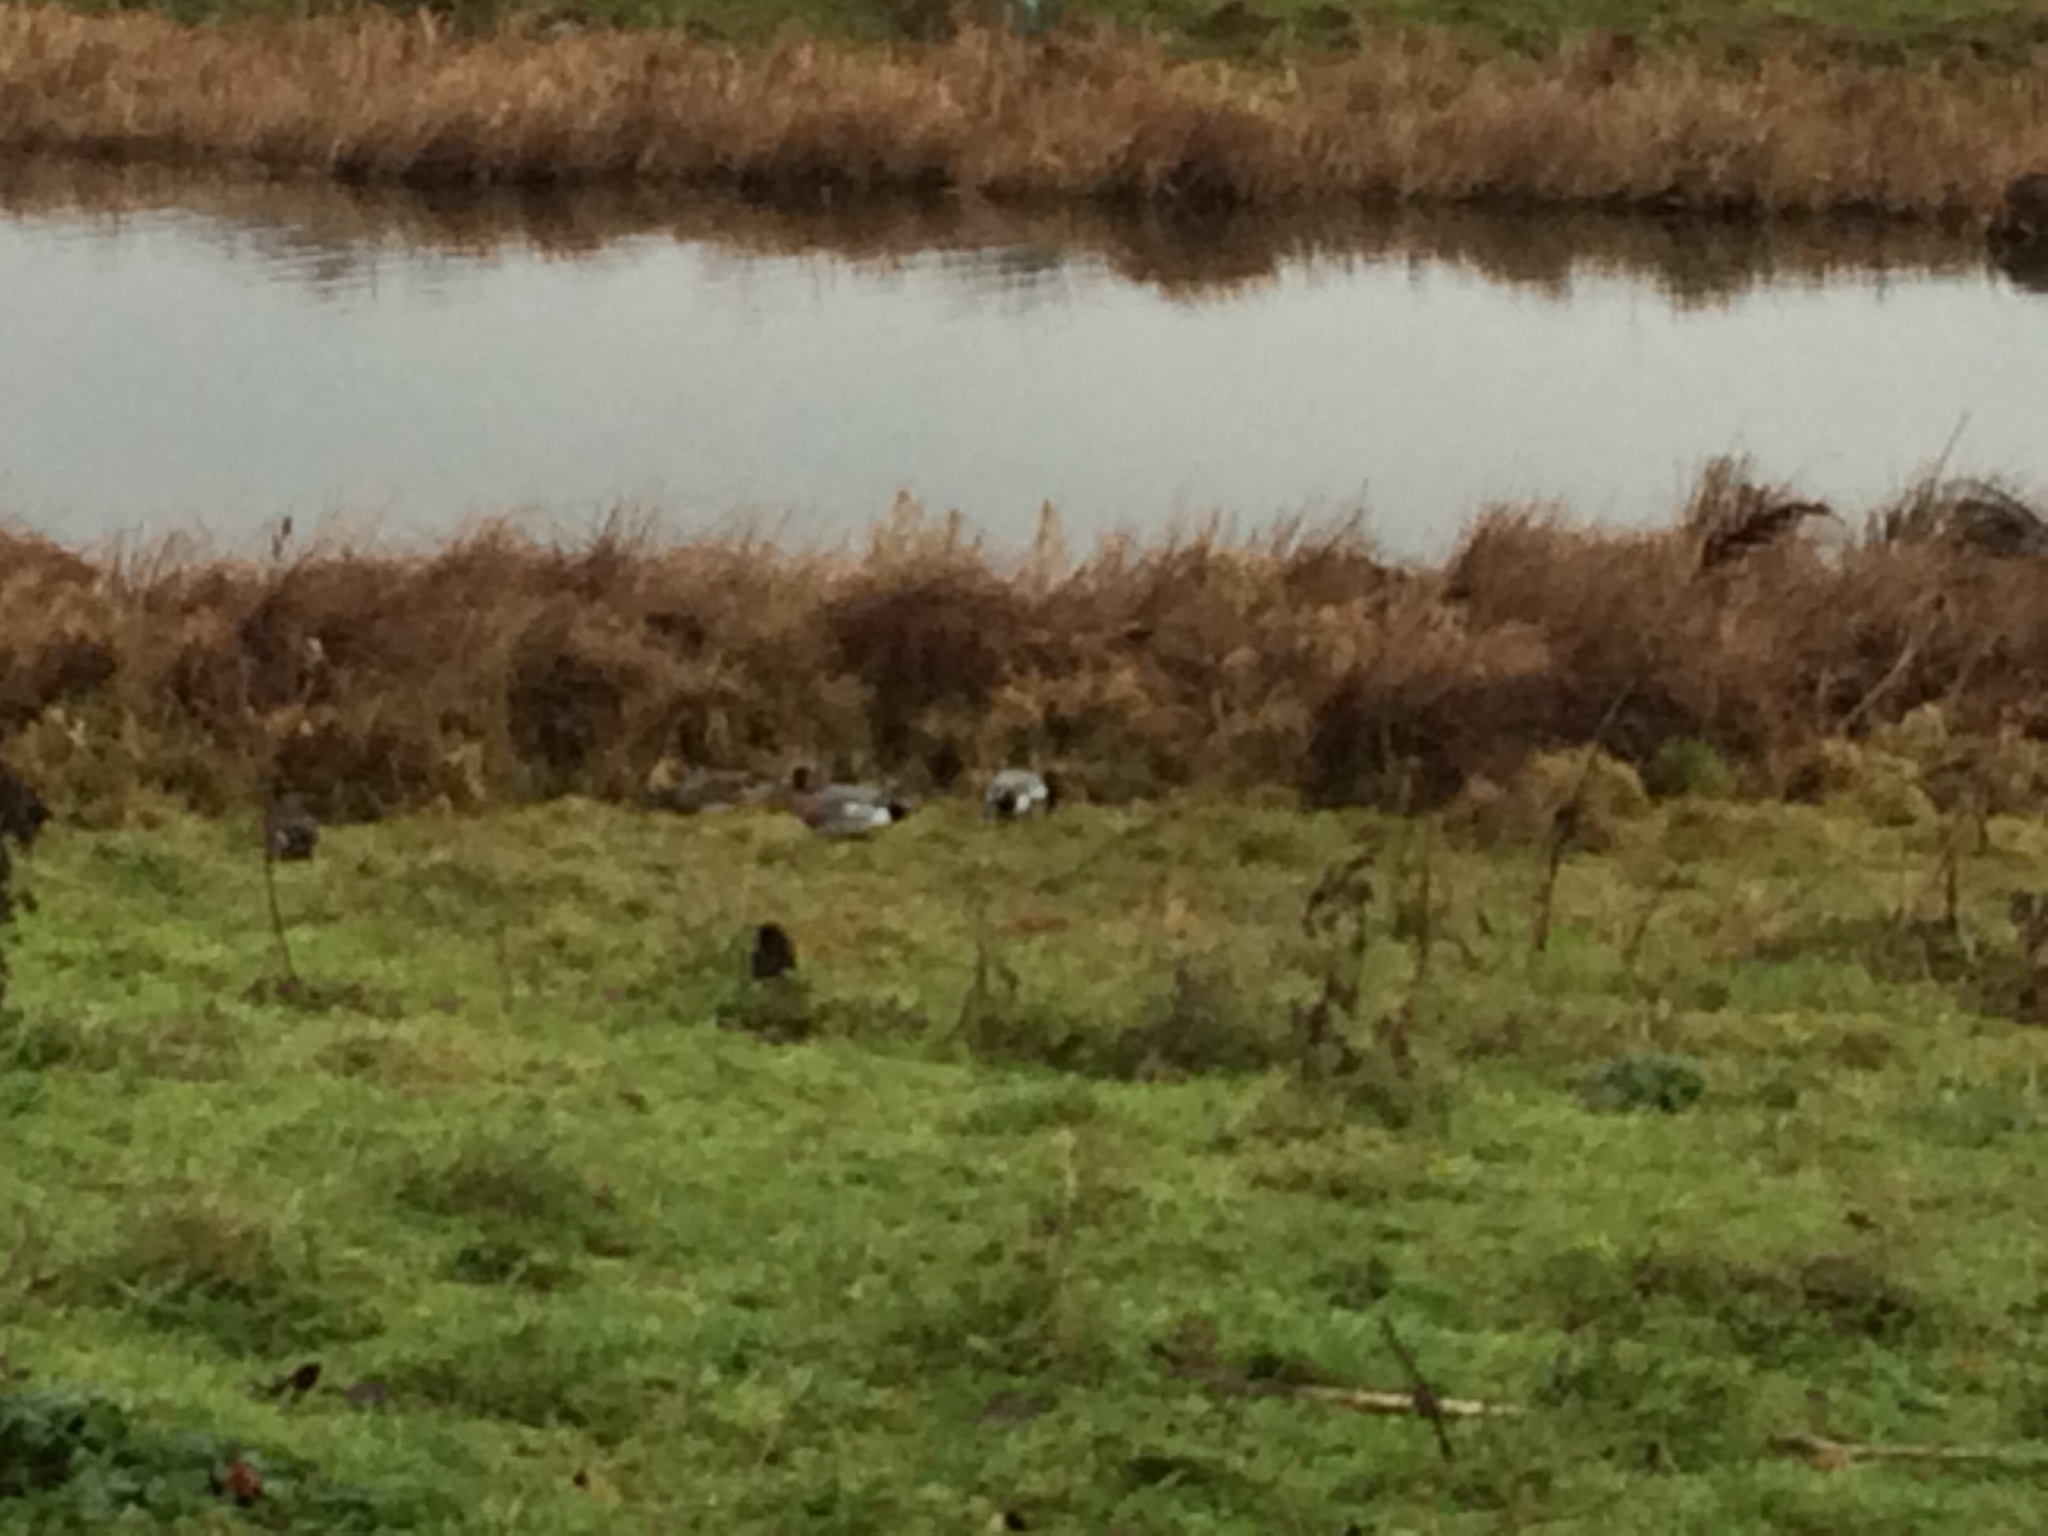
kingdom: Animalia
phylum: Chordata
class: Aves
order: Anseriformes
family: Anatidae
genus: Mareca
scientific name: Mareca penelope
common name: Eurasian wigeon
